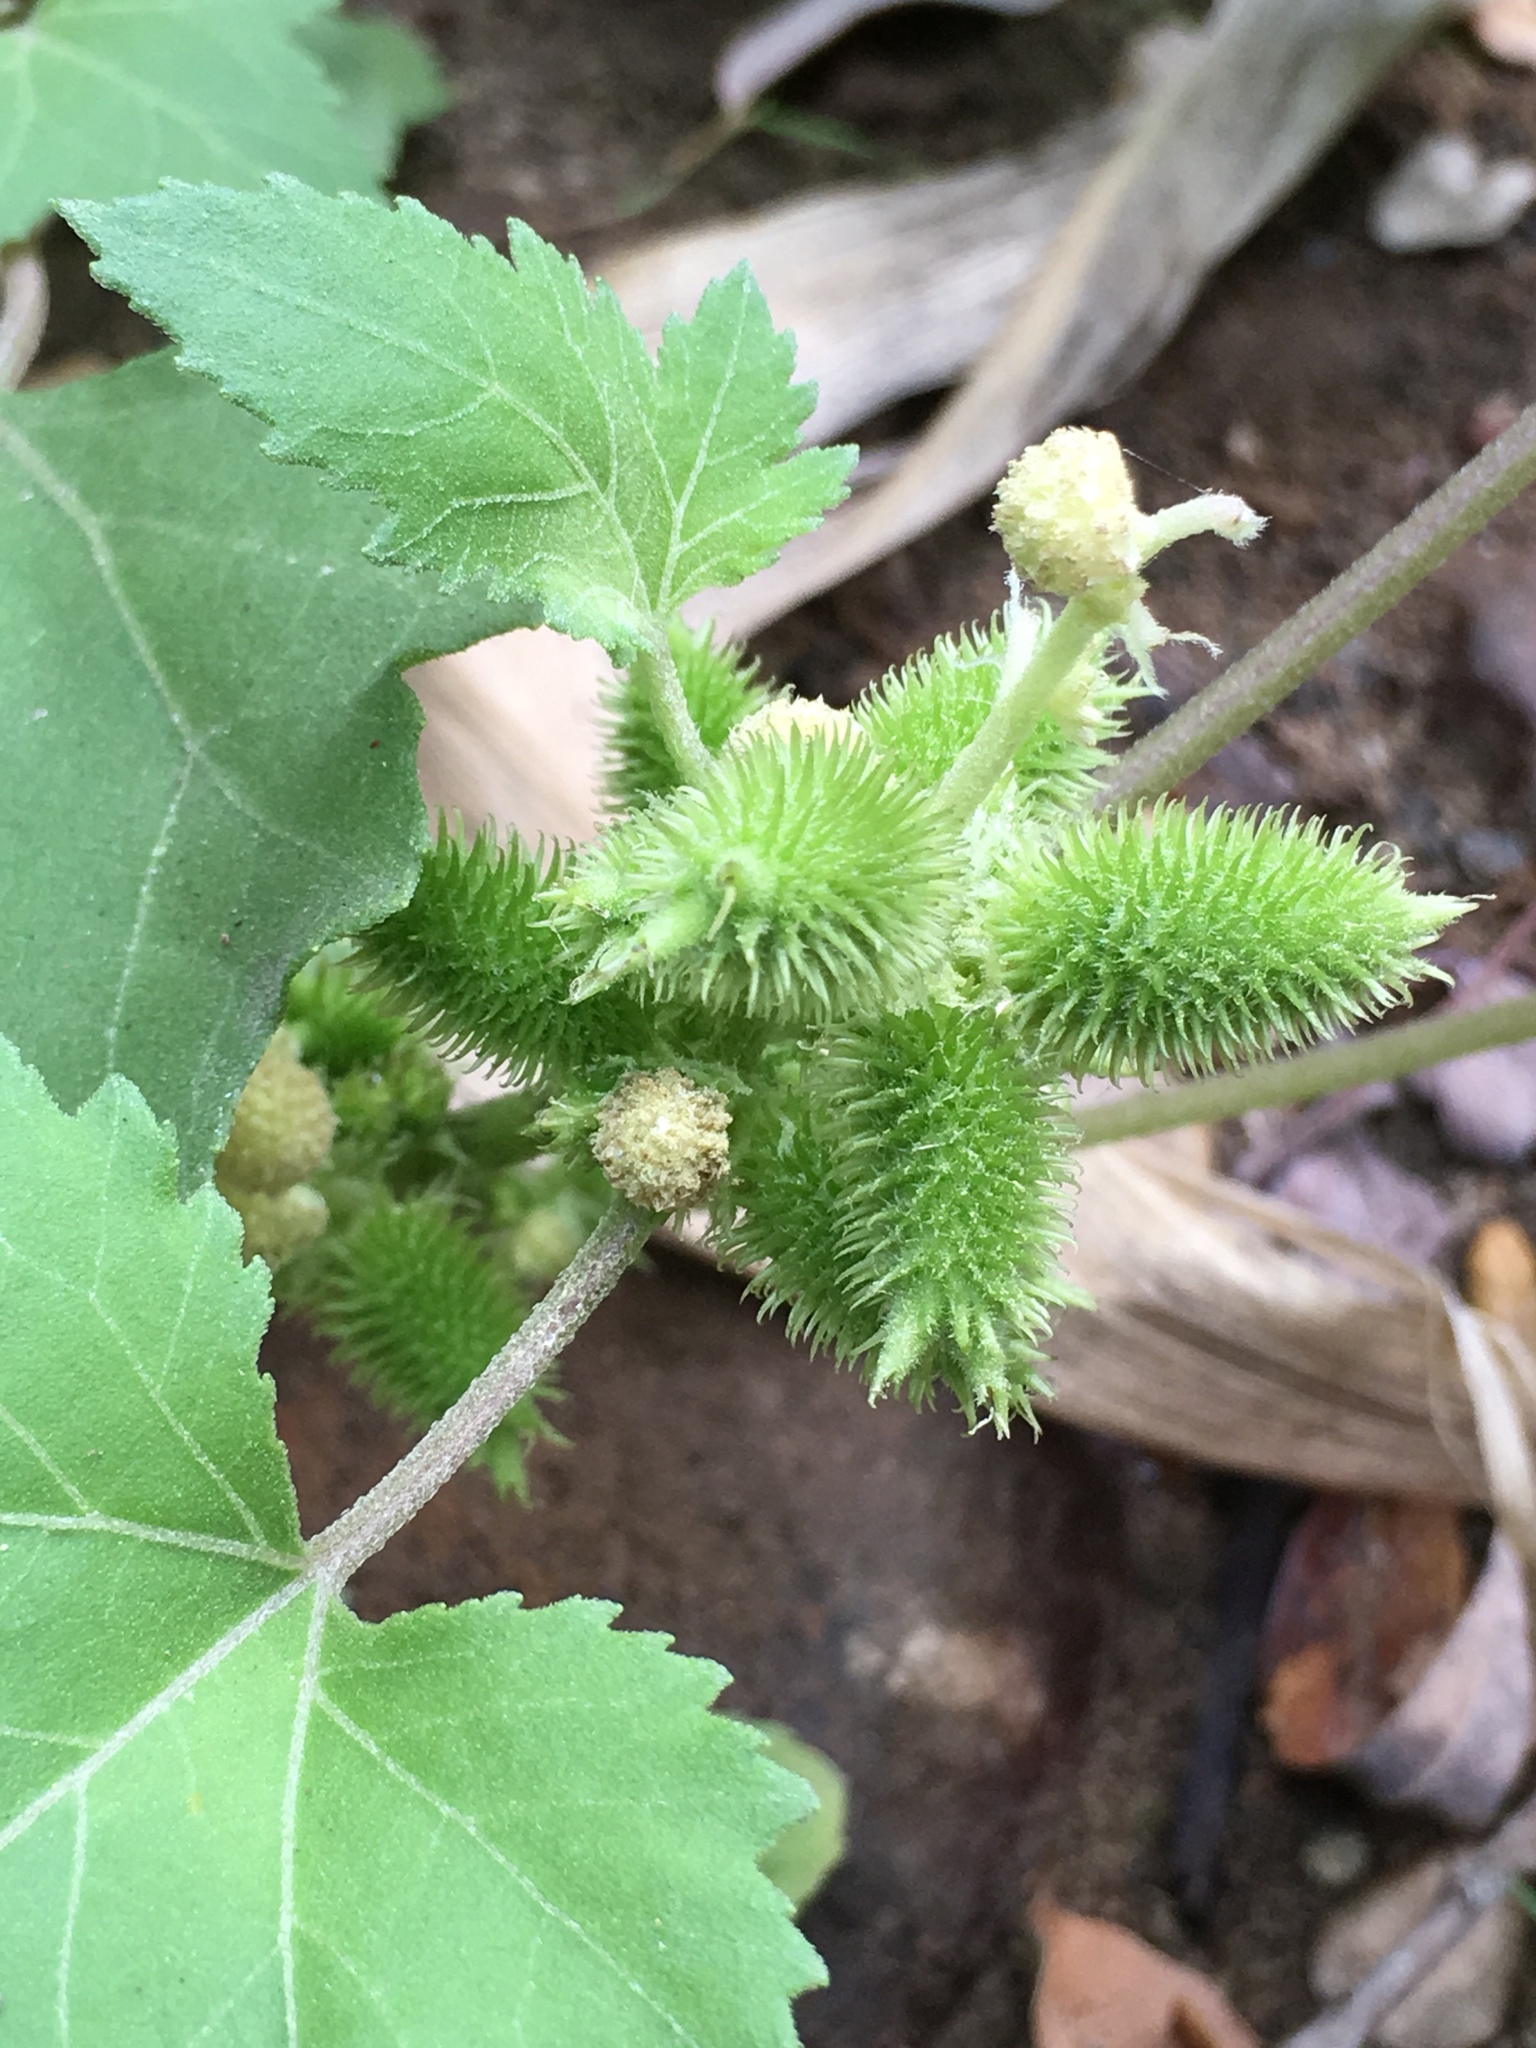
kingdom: Plantae
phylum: Tracheophyta
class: Magnoliopsida
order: Asterales
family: Asteraceae
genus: Xanthium
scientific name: Xanthium strumarium
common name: Rough cocklebur
